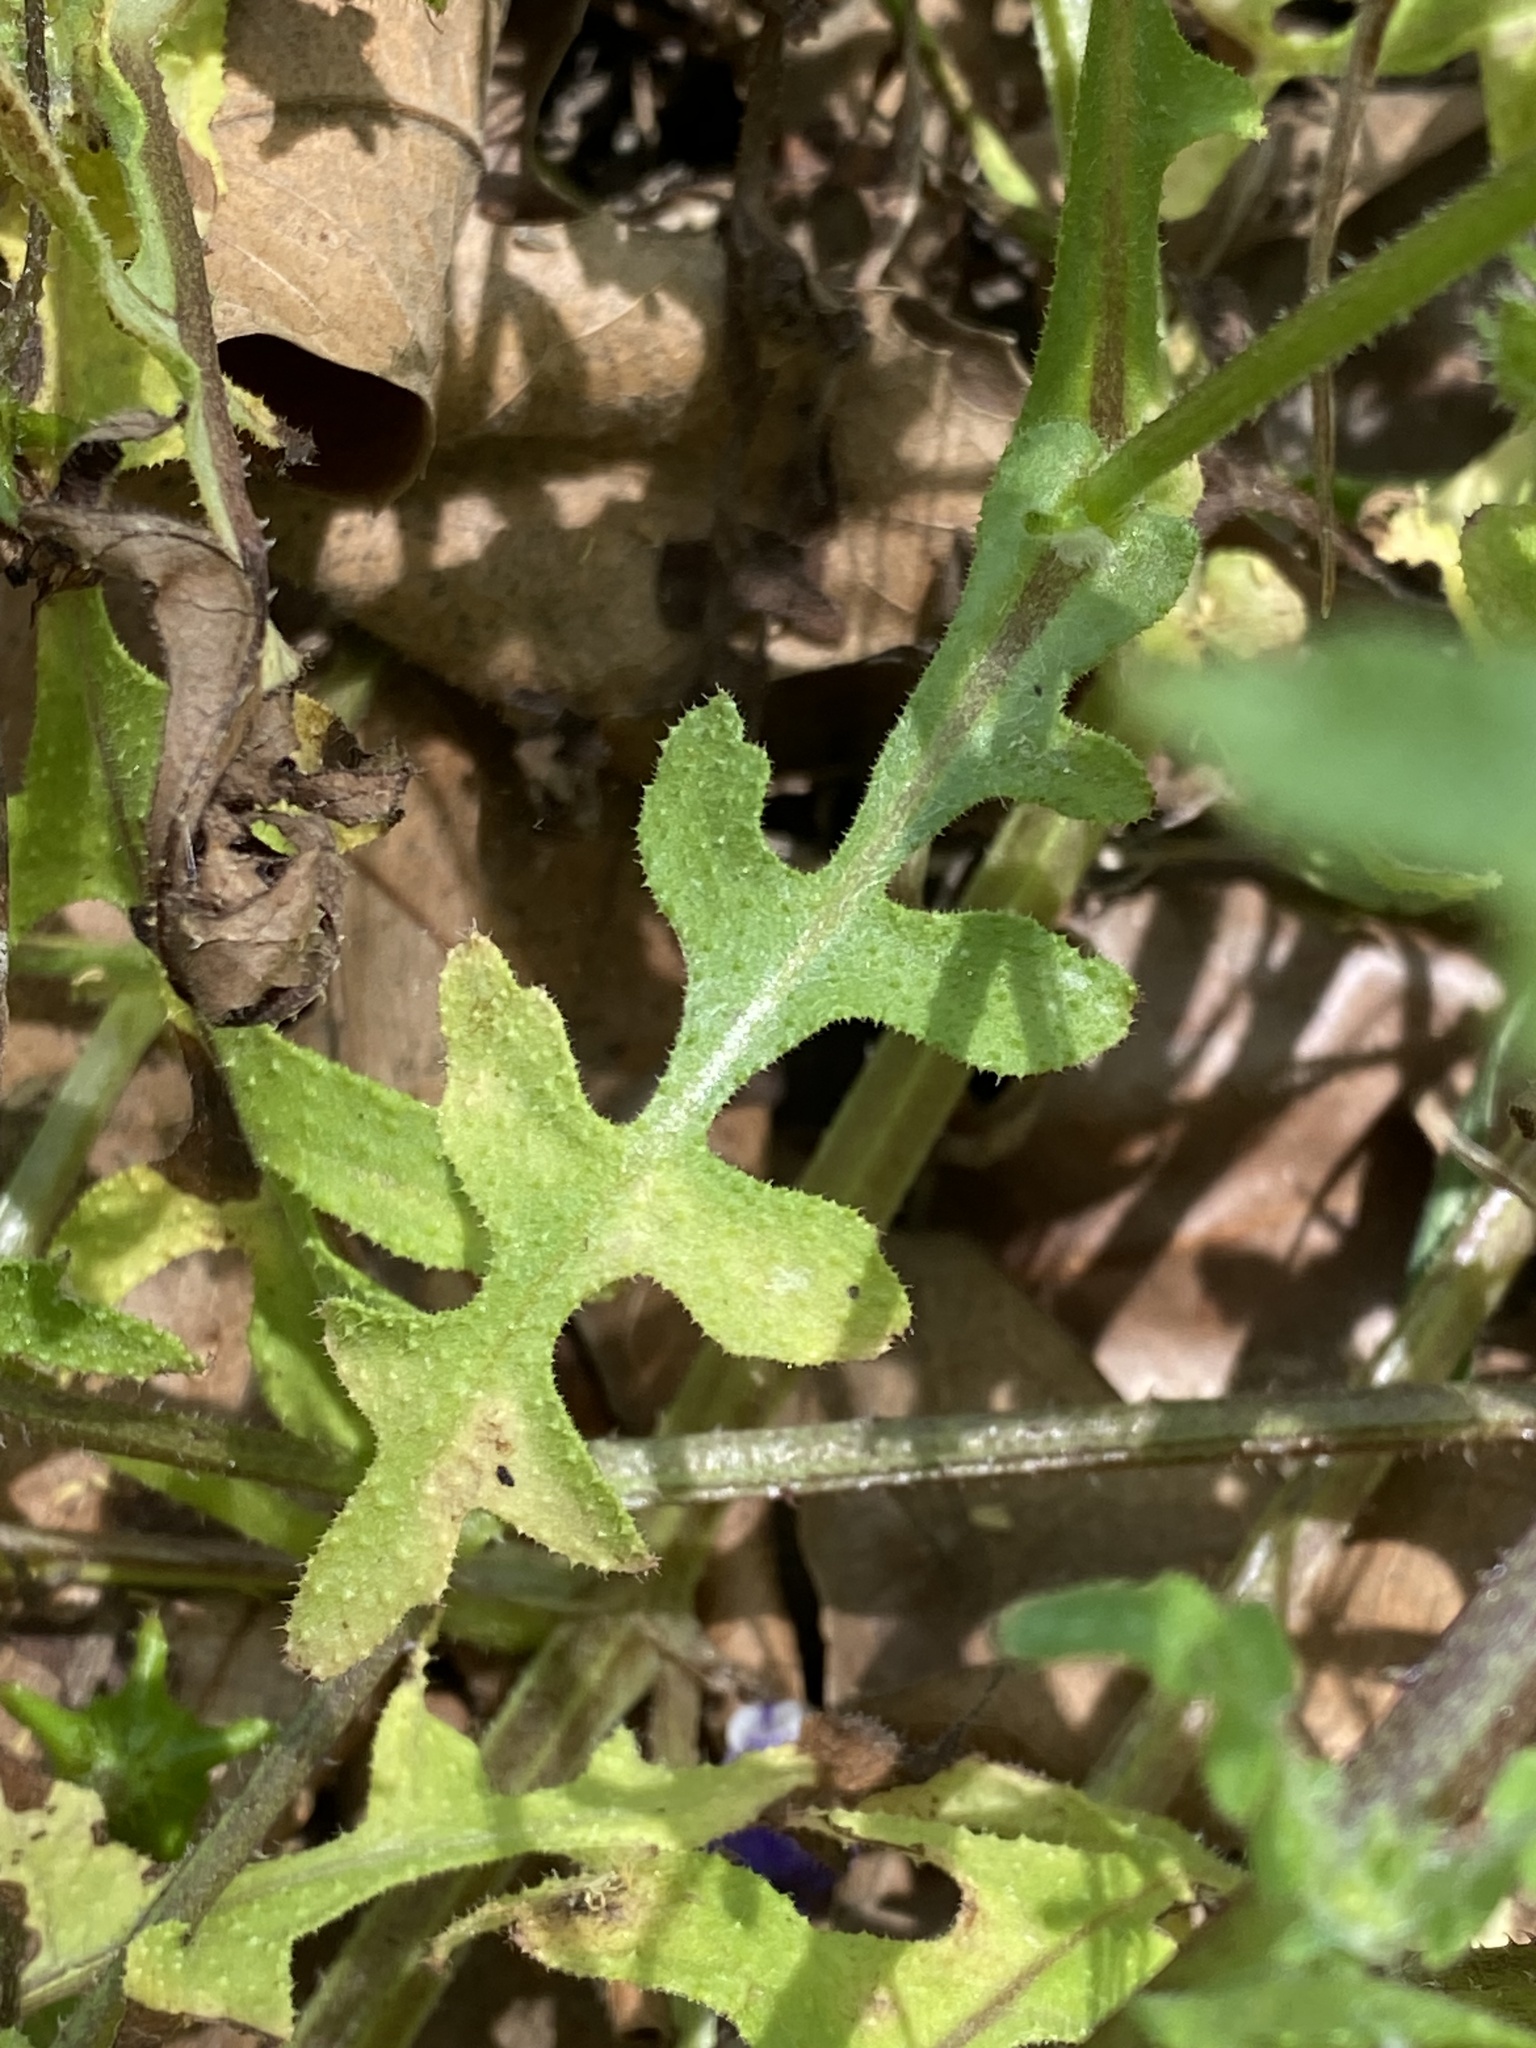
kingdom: Plantae
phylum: Tracheophyta
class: Magnoliopsida
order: Boraginales
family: Hydrophyllaceae
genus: Pholistoma
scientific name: Pholistoma auritum
